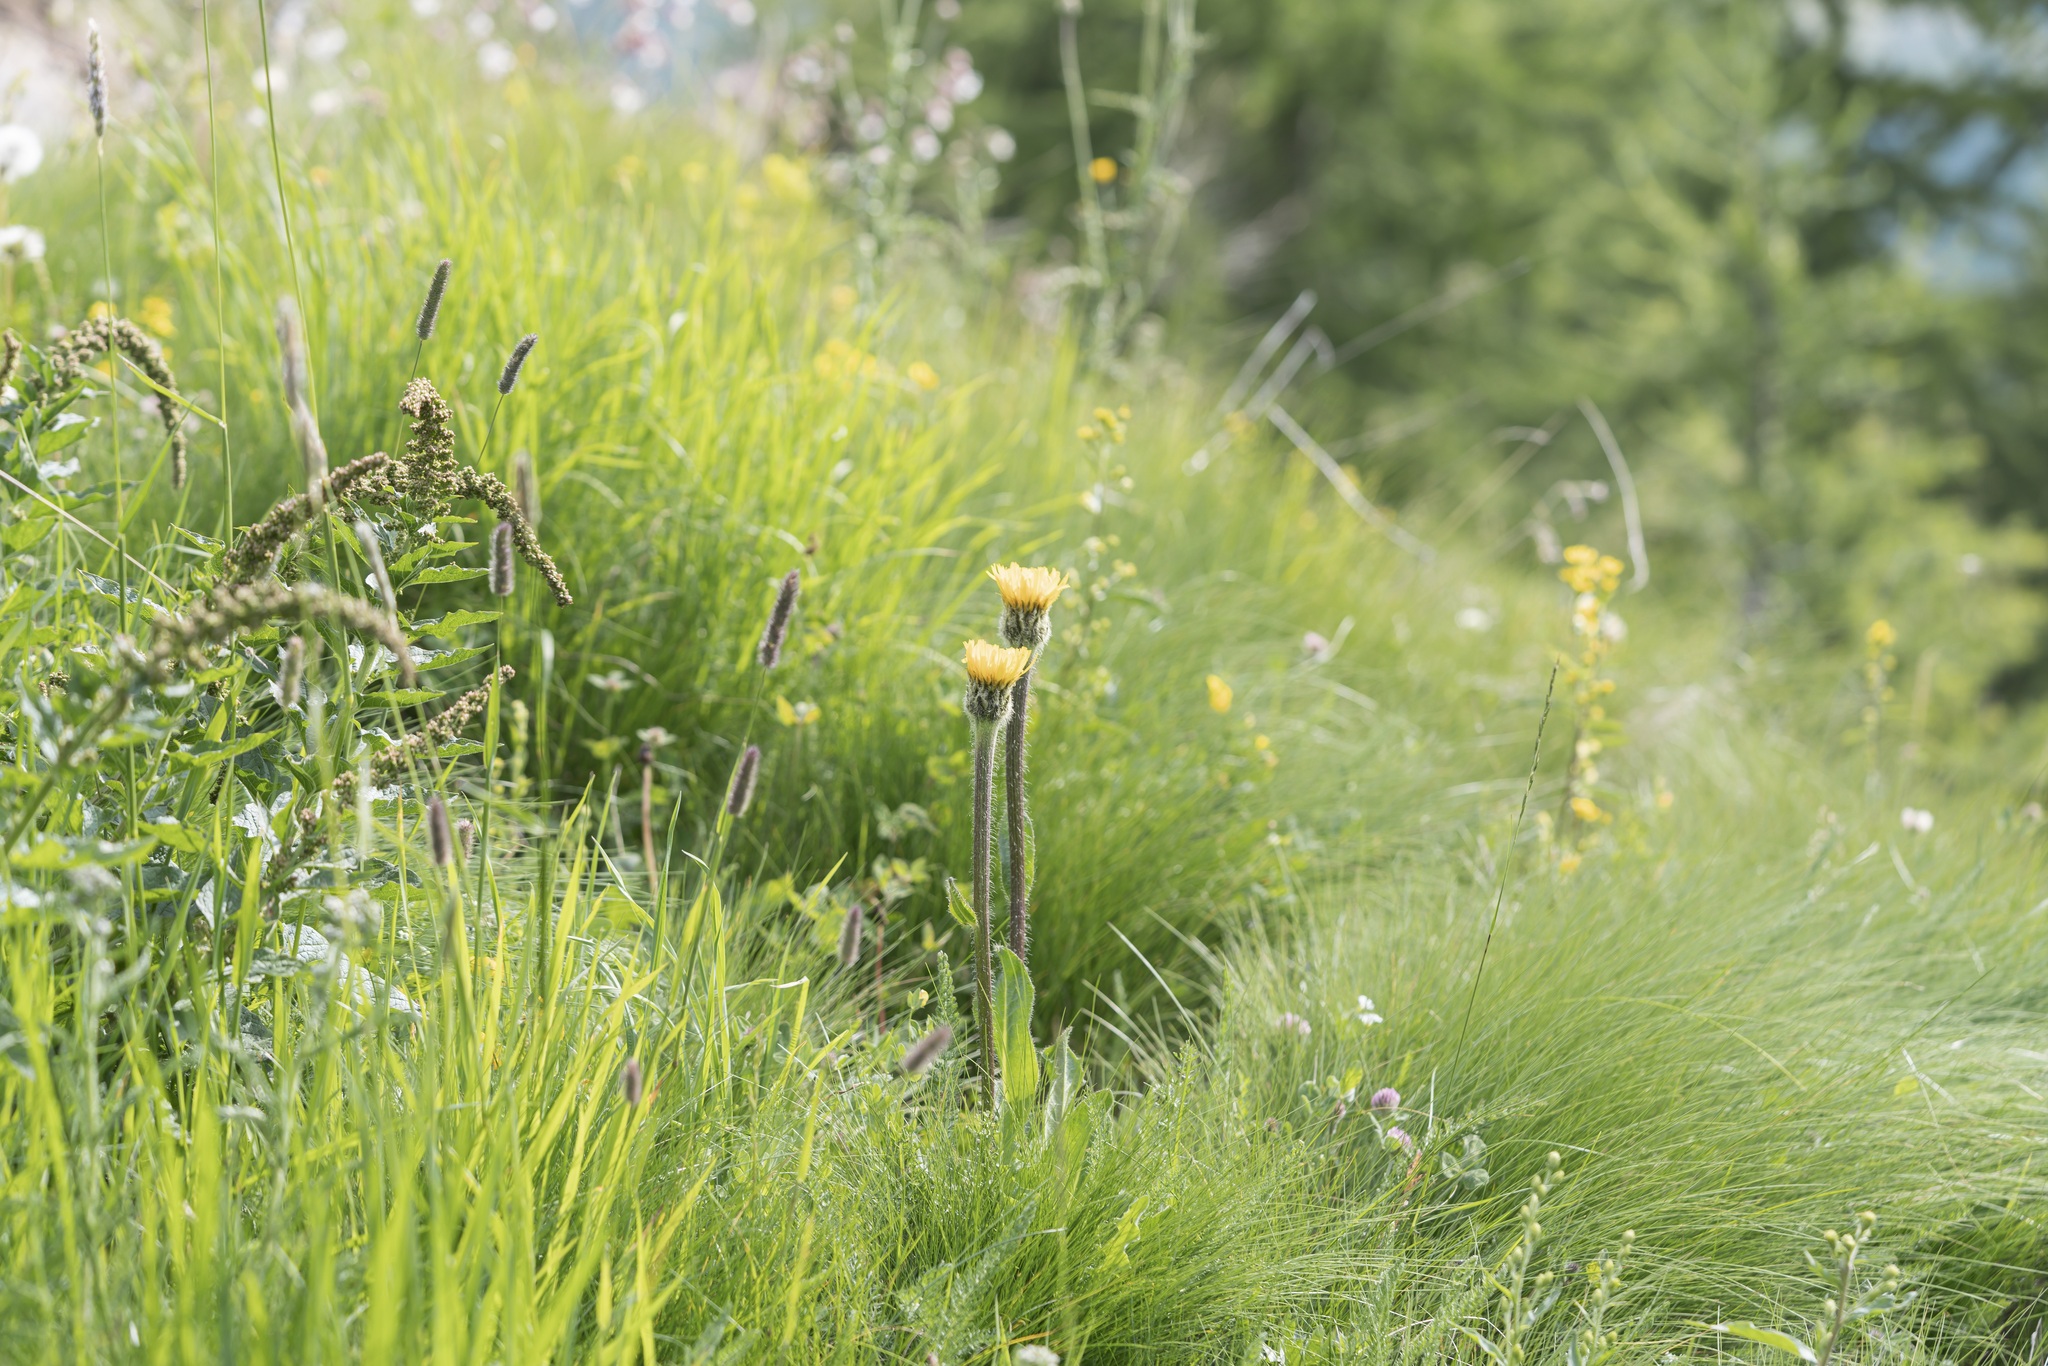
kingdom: Plantae
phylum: Tracheophyta
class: Magnoliopsida
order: Asterales
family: Asteraceae
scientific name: Asteraceae
